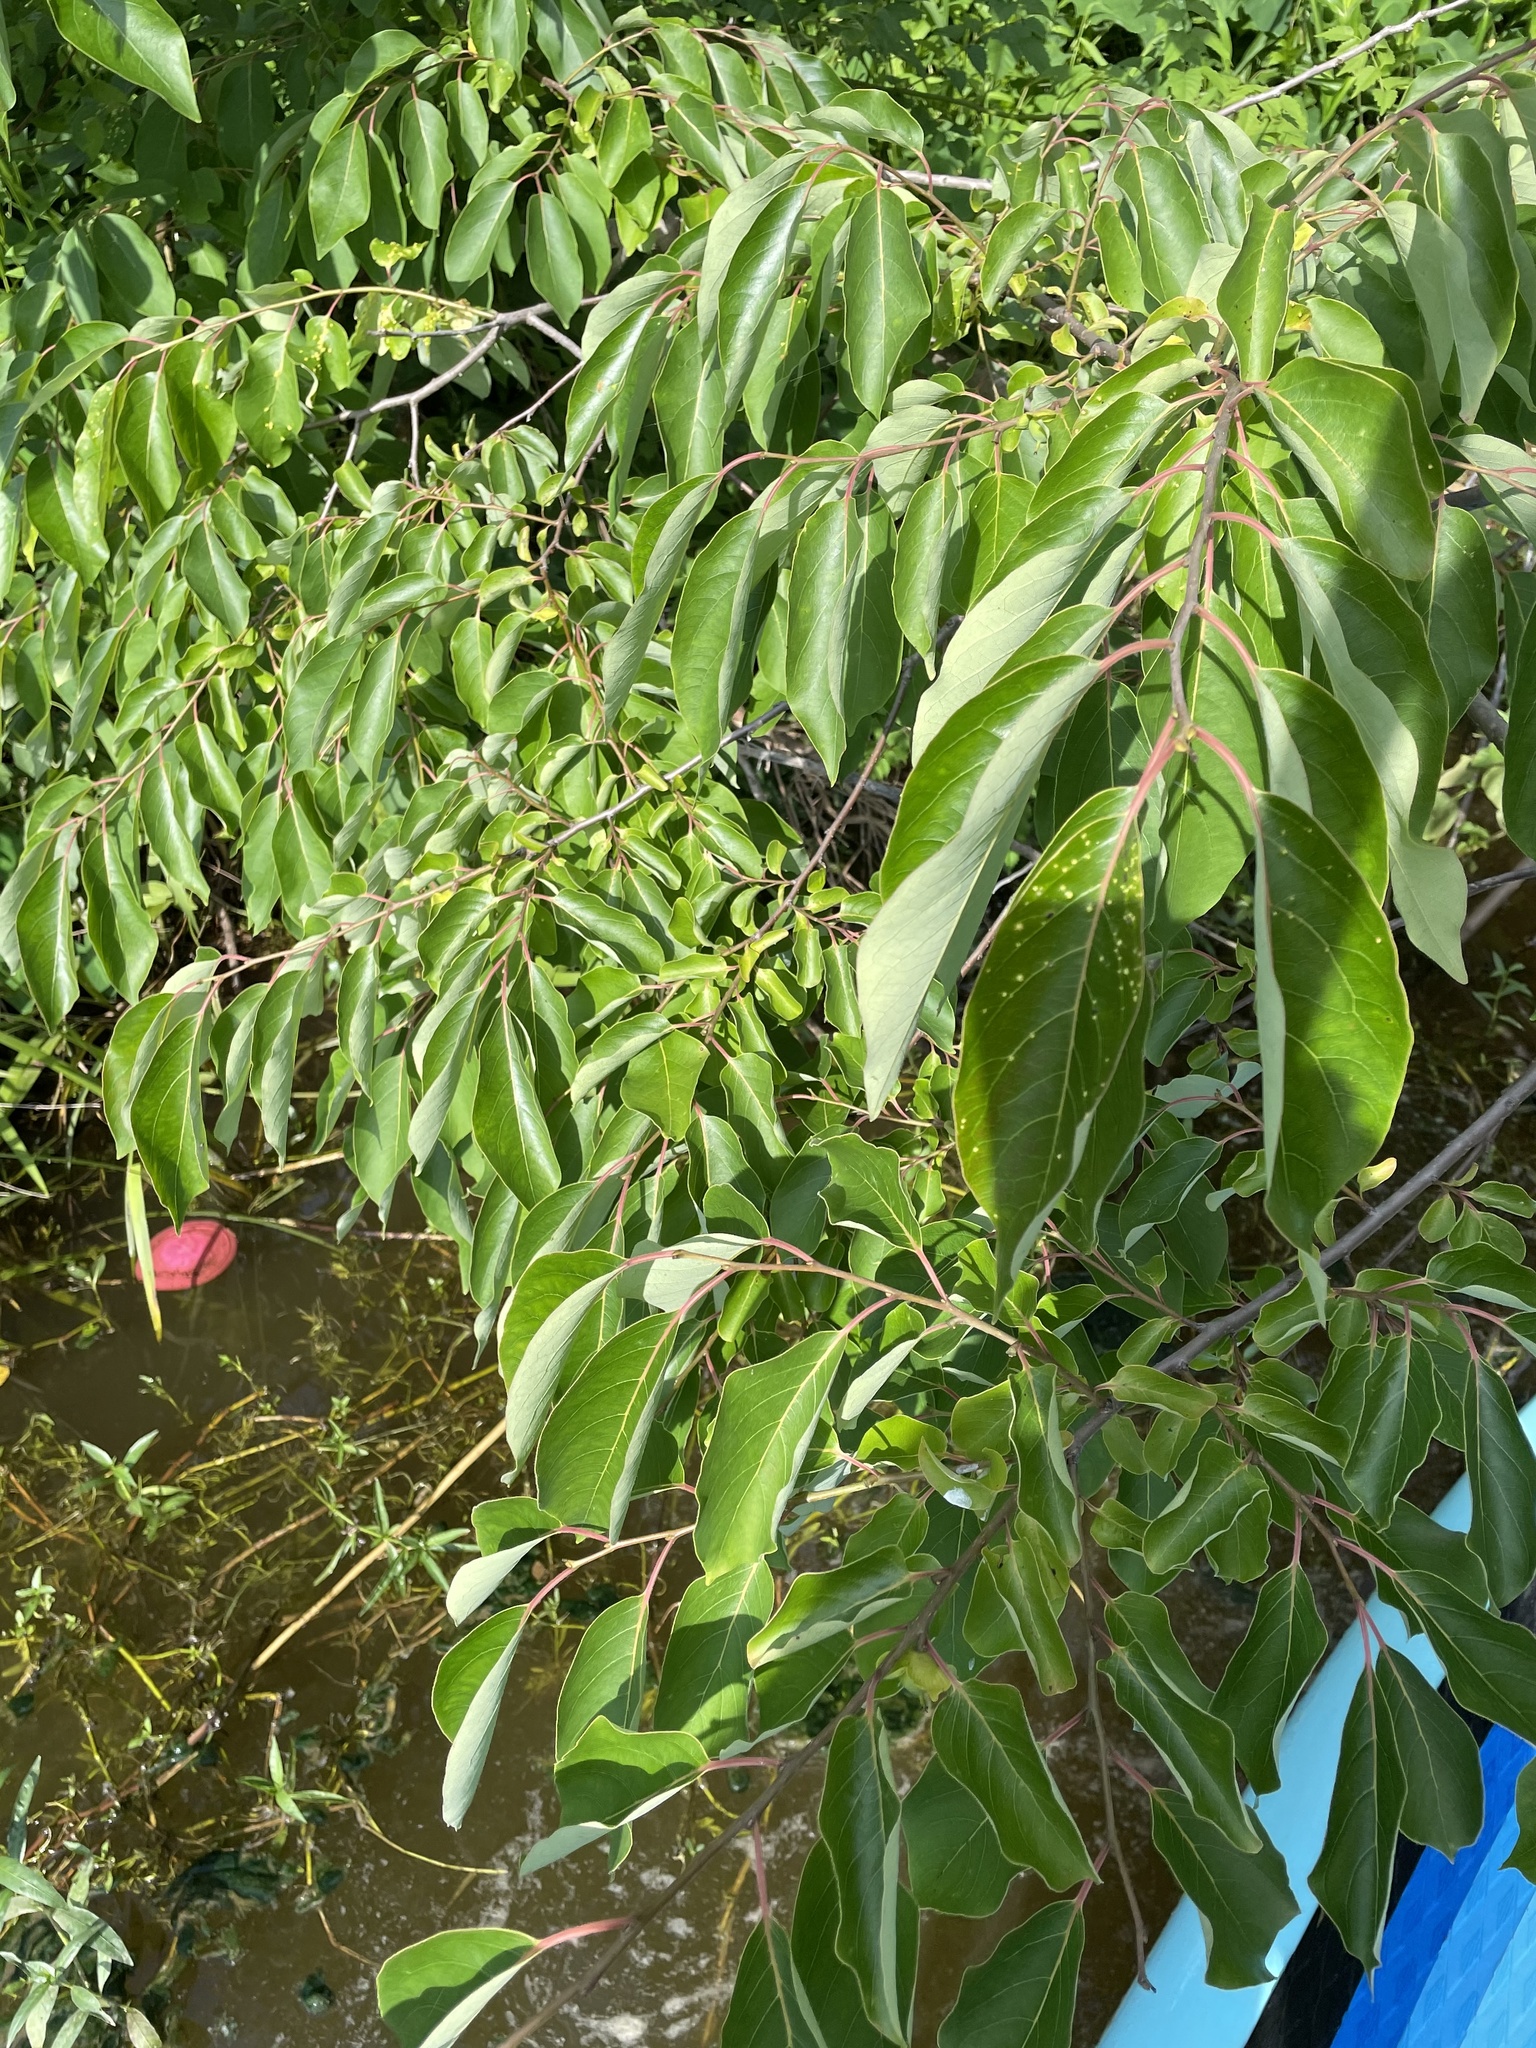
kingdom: Plantae
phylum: Tracheophyta
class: Magnoliopsida
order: Ericales
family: Ebenaceae
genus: Diospyros
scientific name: Diospyros virginiana
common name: Persimmon
